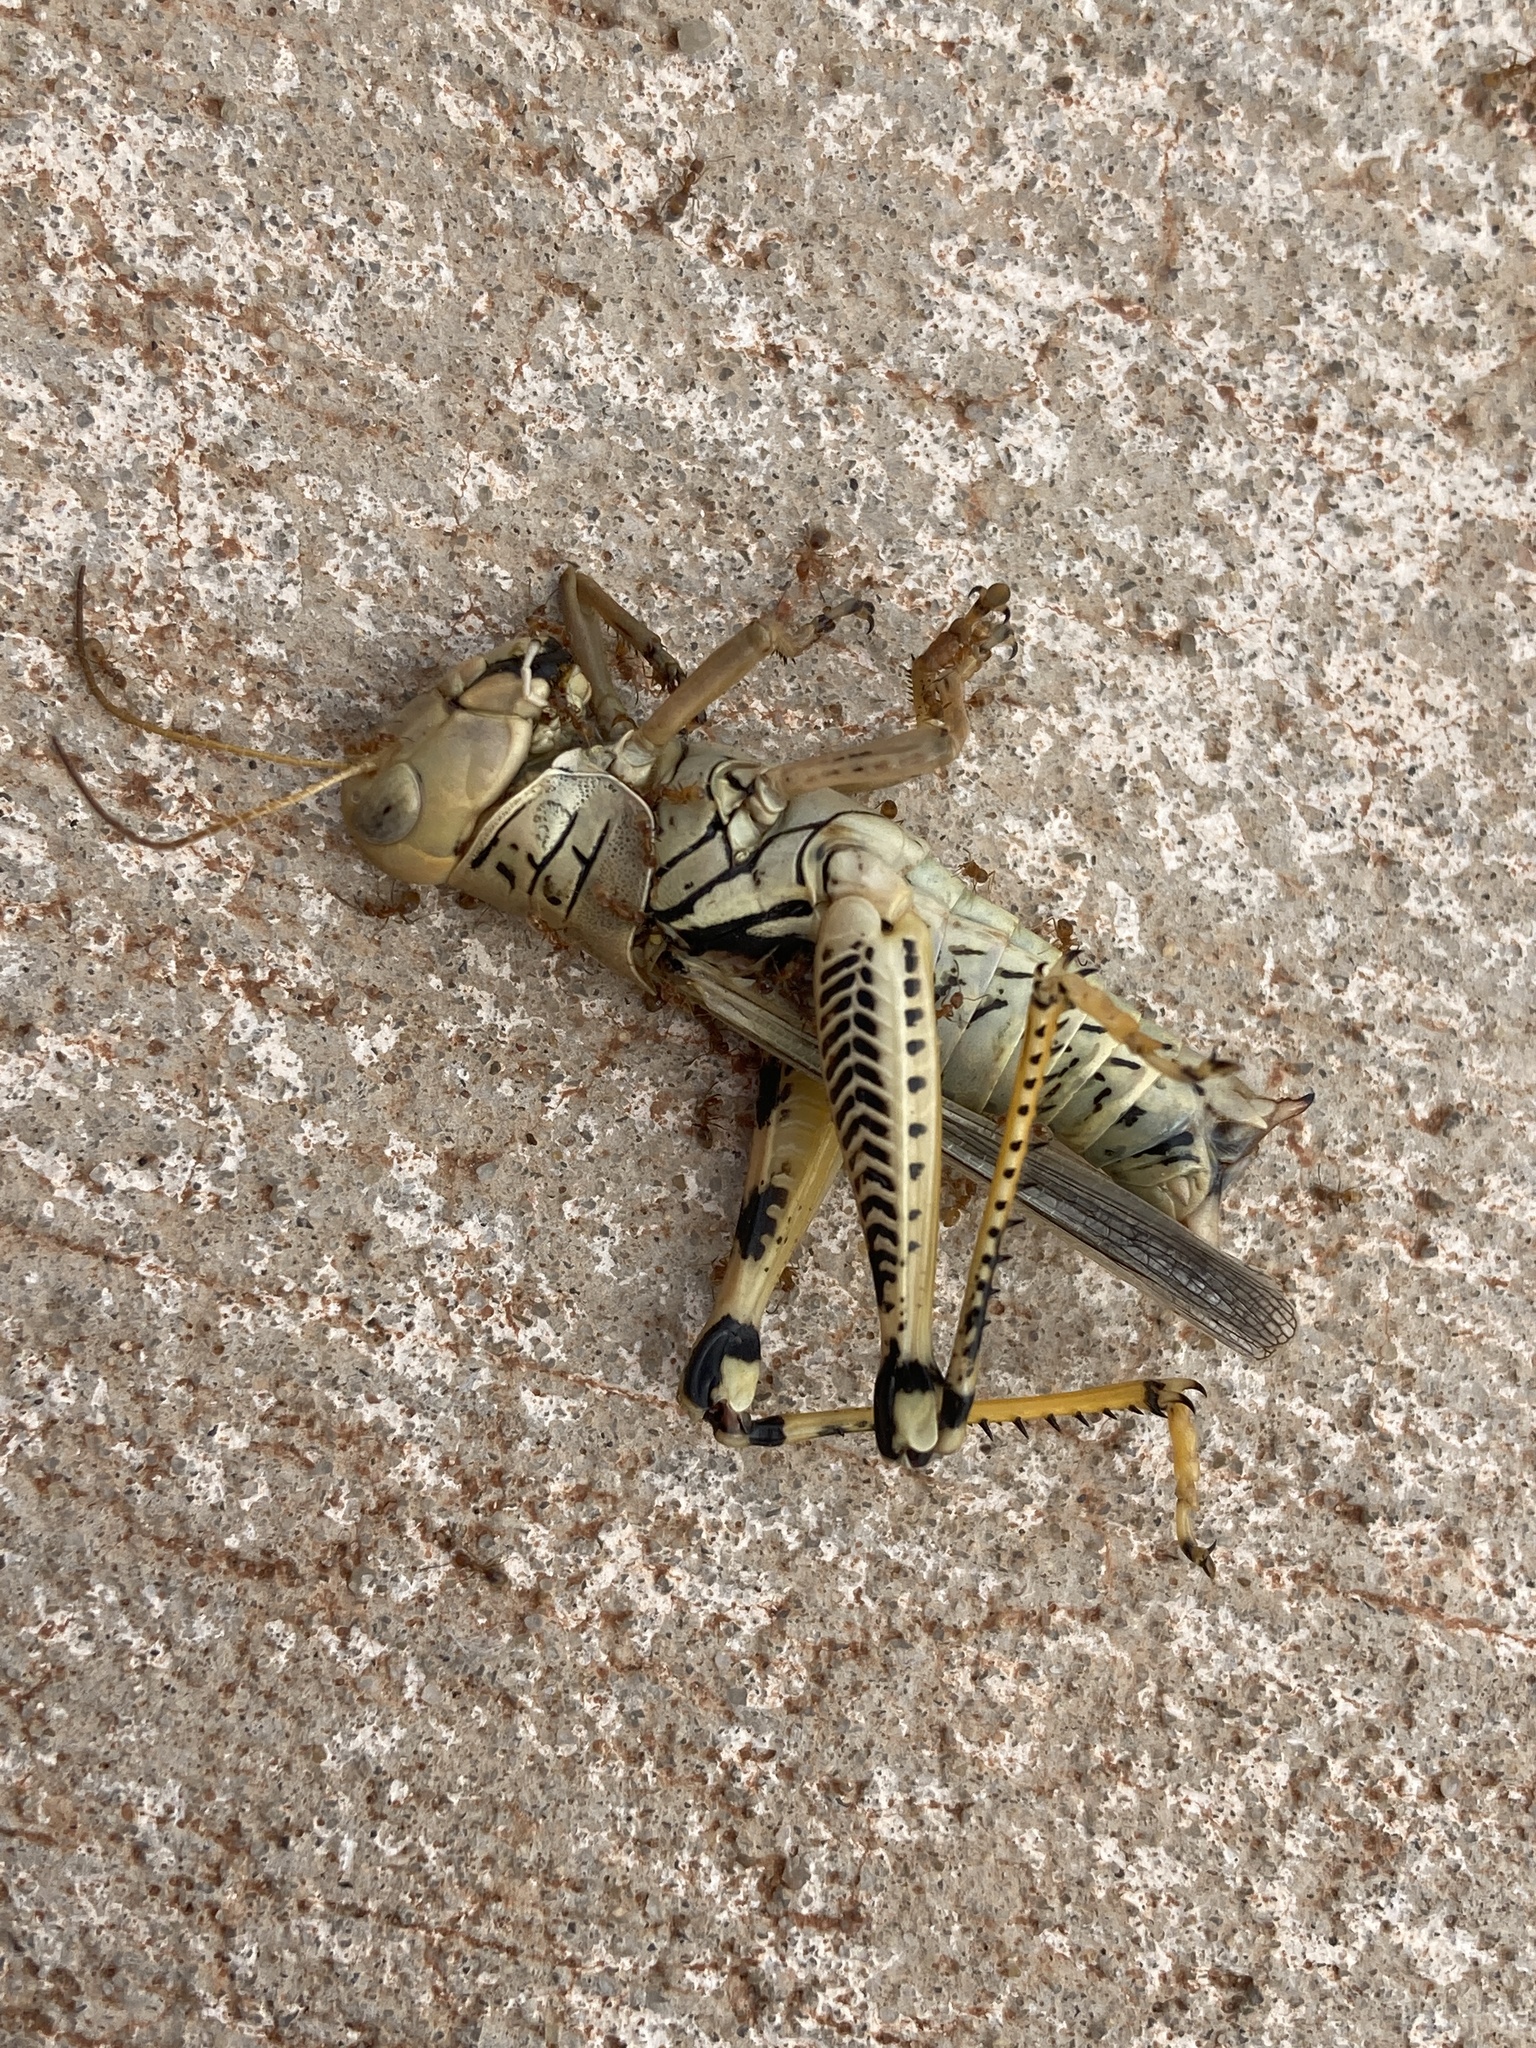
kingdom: Animalia
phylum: Arthropoda
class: Insecta
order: Orthoptera
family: Acrididae
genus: Melanoplus
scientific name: Melanoplus differentialis
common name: Differential grasshopper
